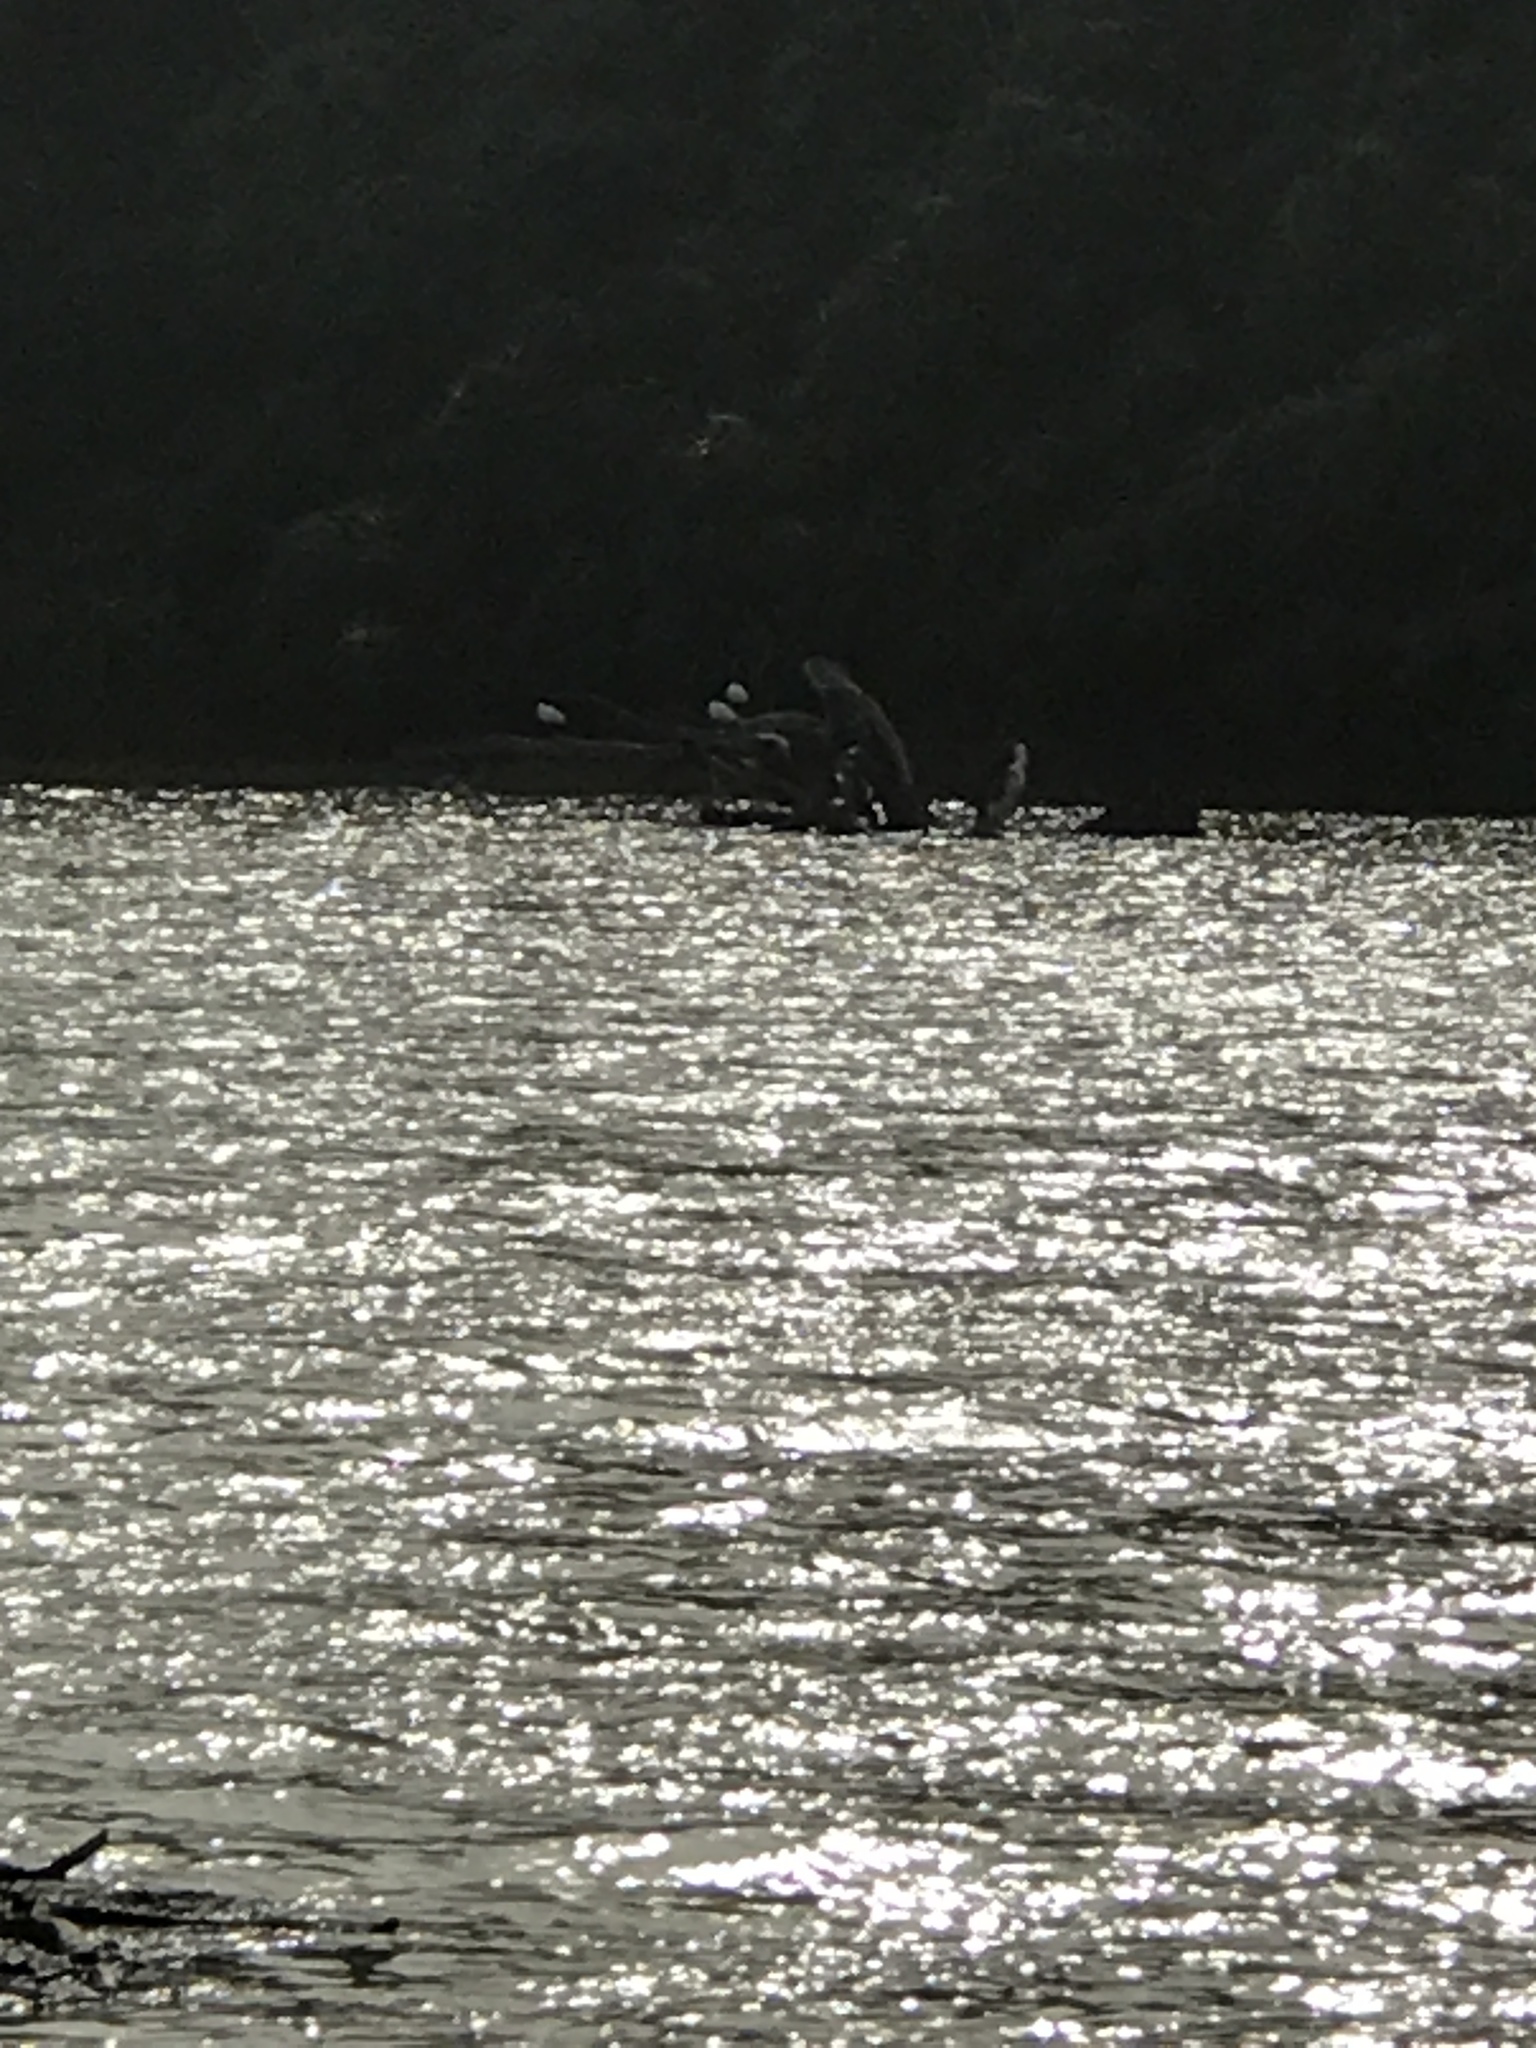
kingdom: Animalia
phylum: Chordata
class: Aves
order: Pelecaniformes
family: Threskiornithidae
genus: Platalea
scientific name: Platalea regia
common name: Royal spoonbill
